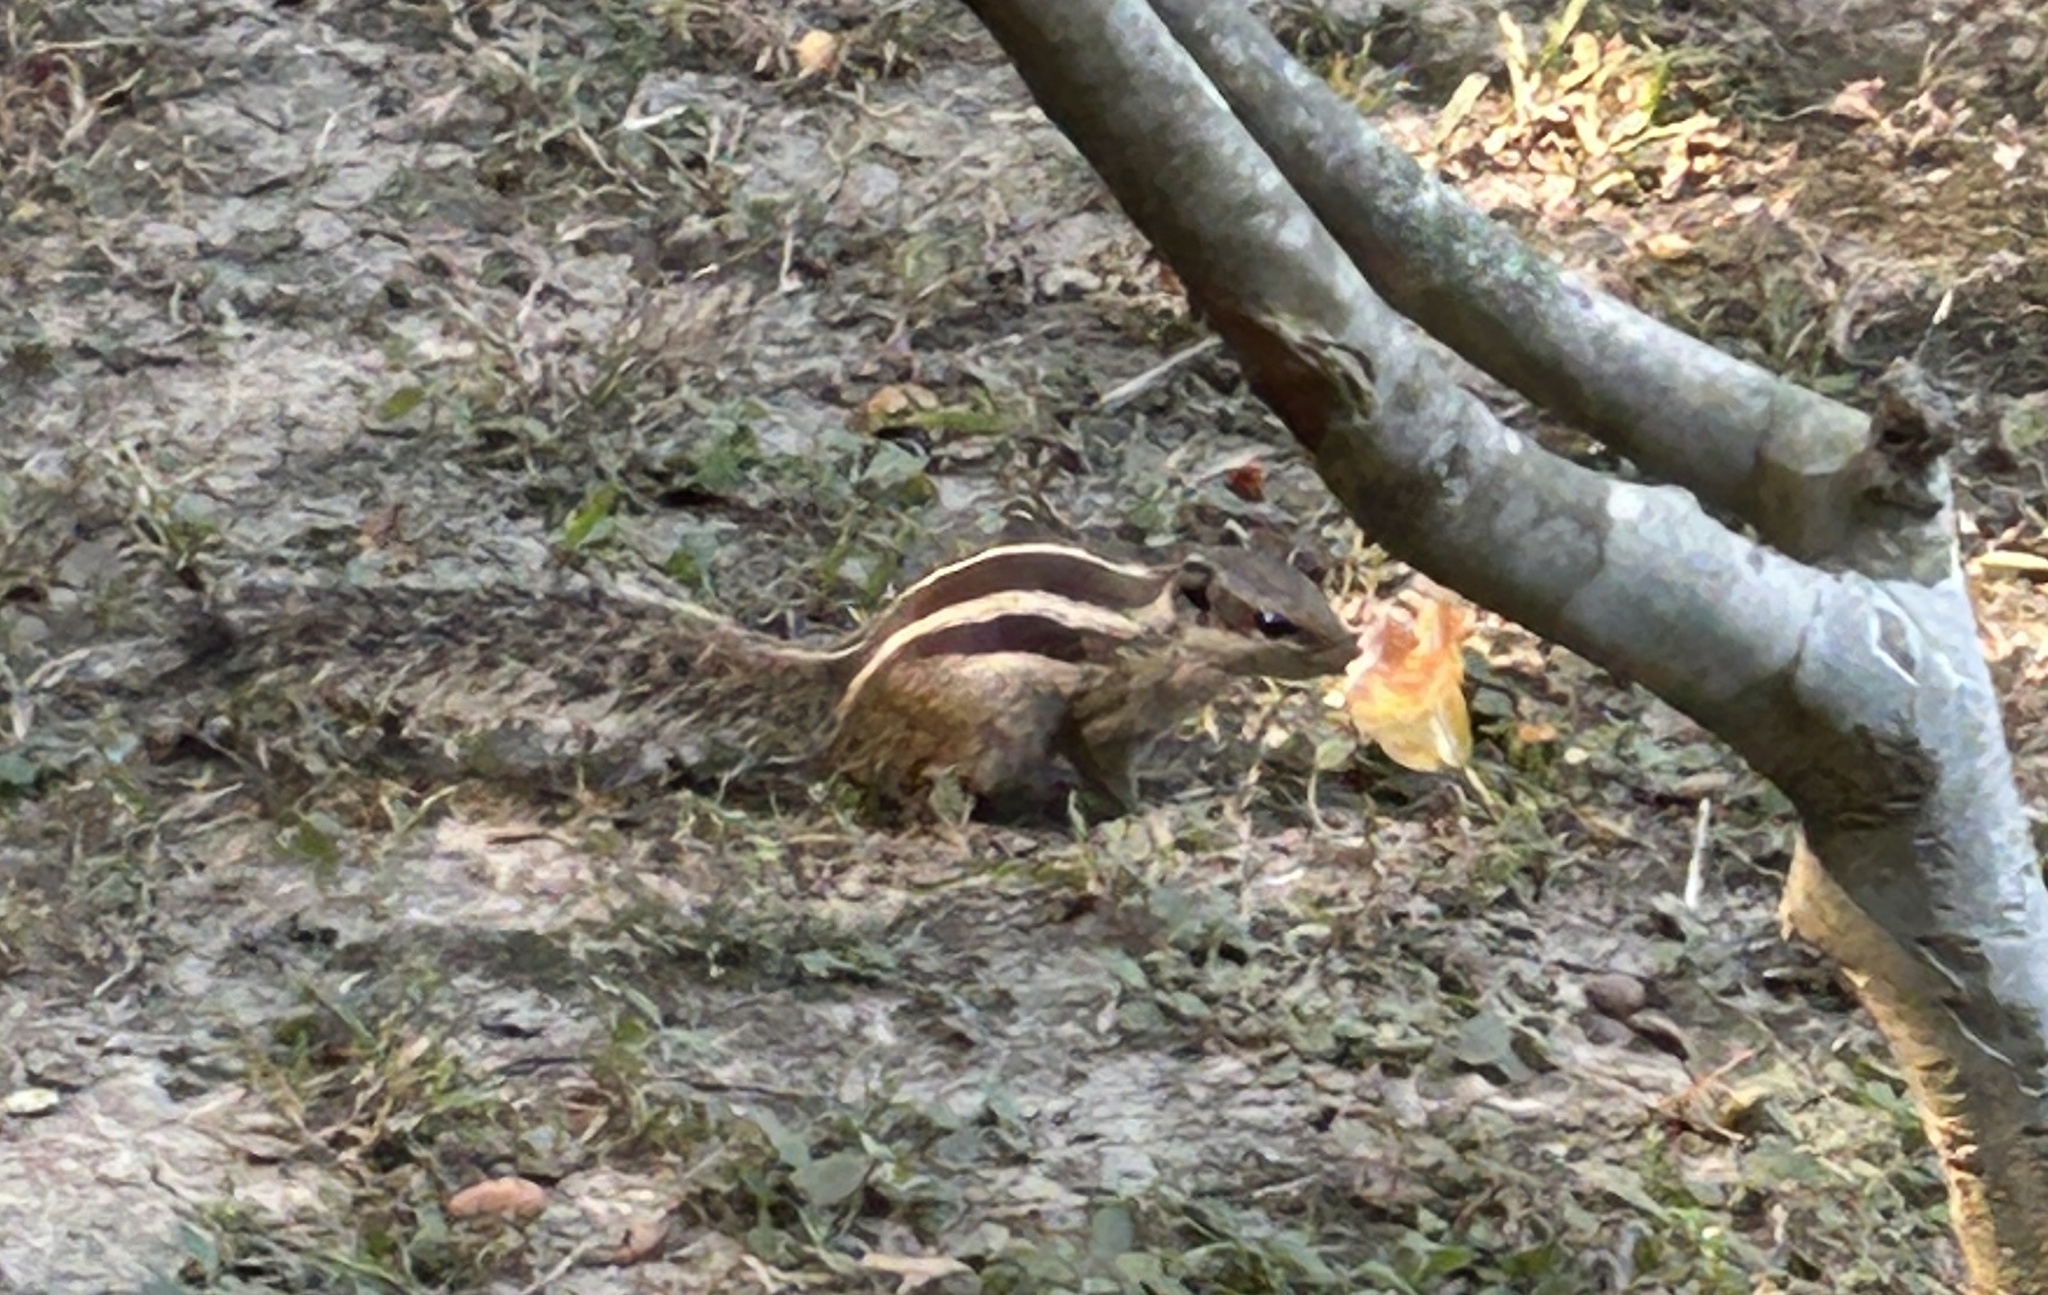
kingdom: Animalia
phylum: Chordata
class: Mammalia
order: Rodentia
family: Sciuridae
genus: Funambulus
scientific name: Funambulus pennantii
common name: Northern palm squirrel
